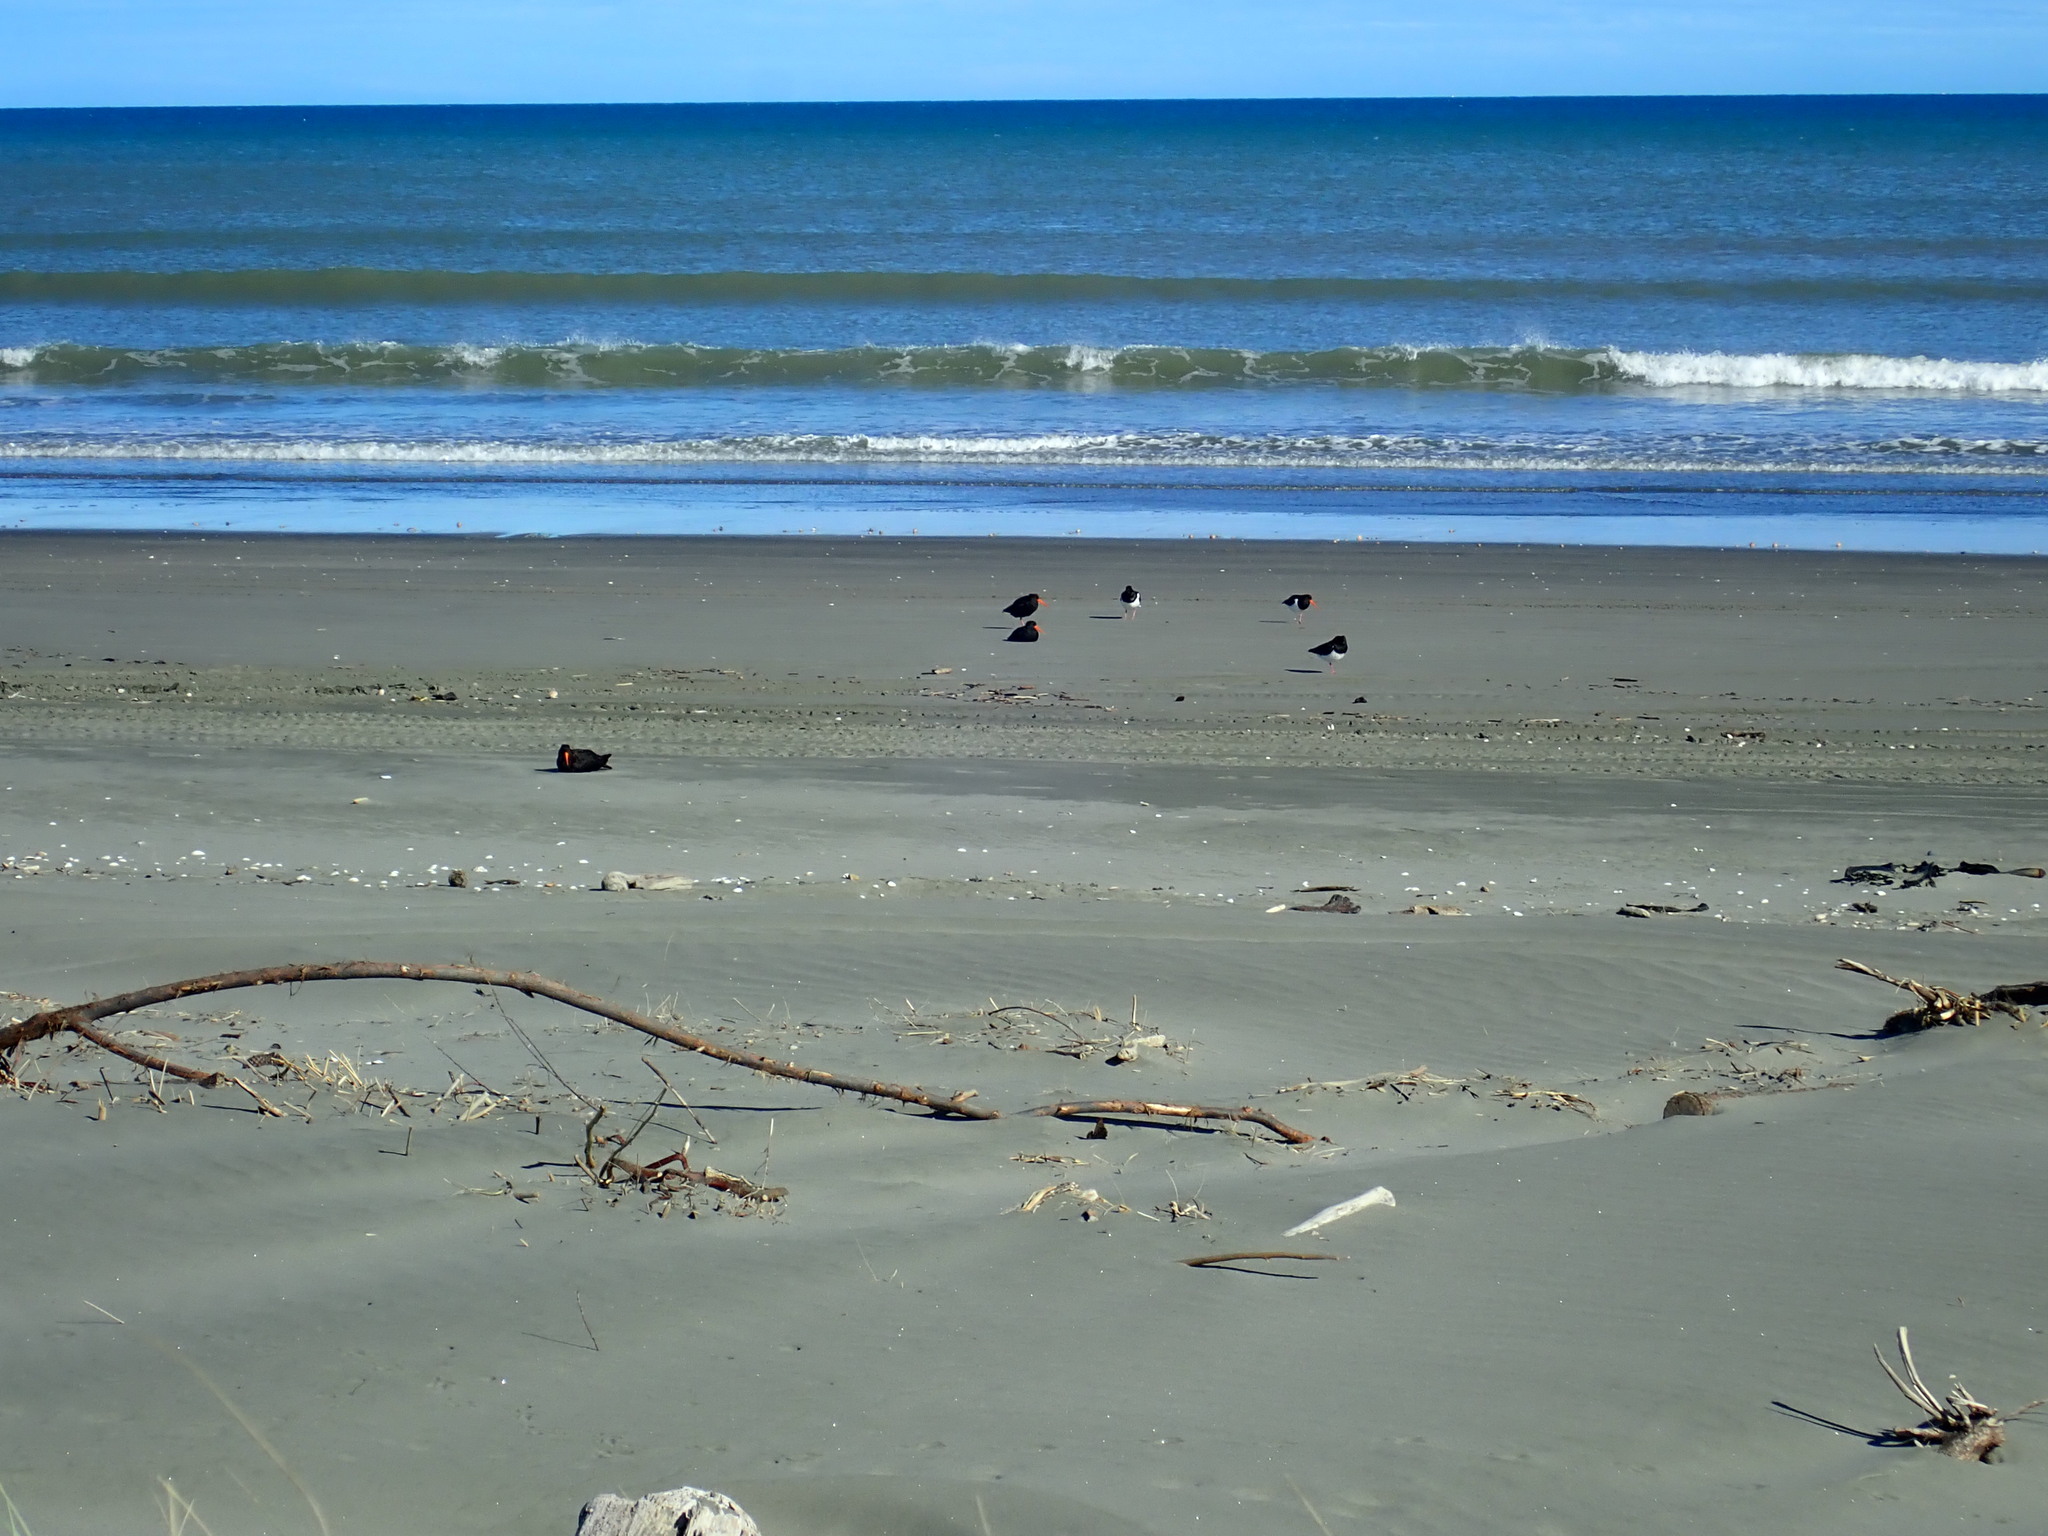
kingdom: Animalia
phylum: Chordata
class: Aves
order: Charadriiformes
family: Haematopodidae
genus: Haematopus
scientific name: Haematopus finschi
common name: South island oystercatcher
